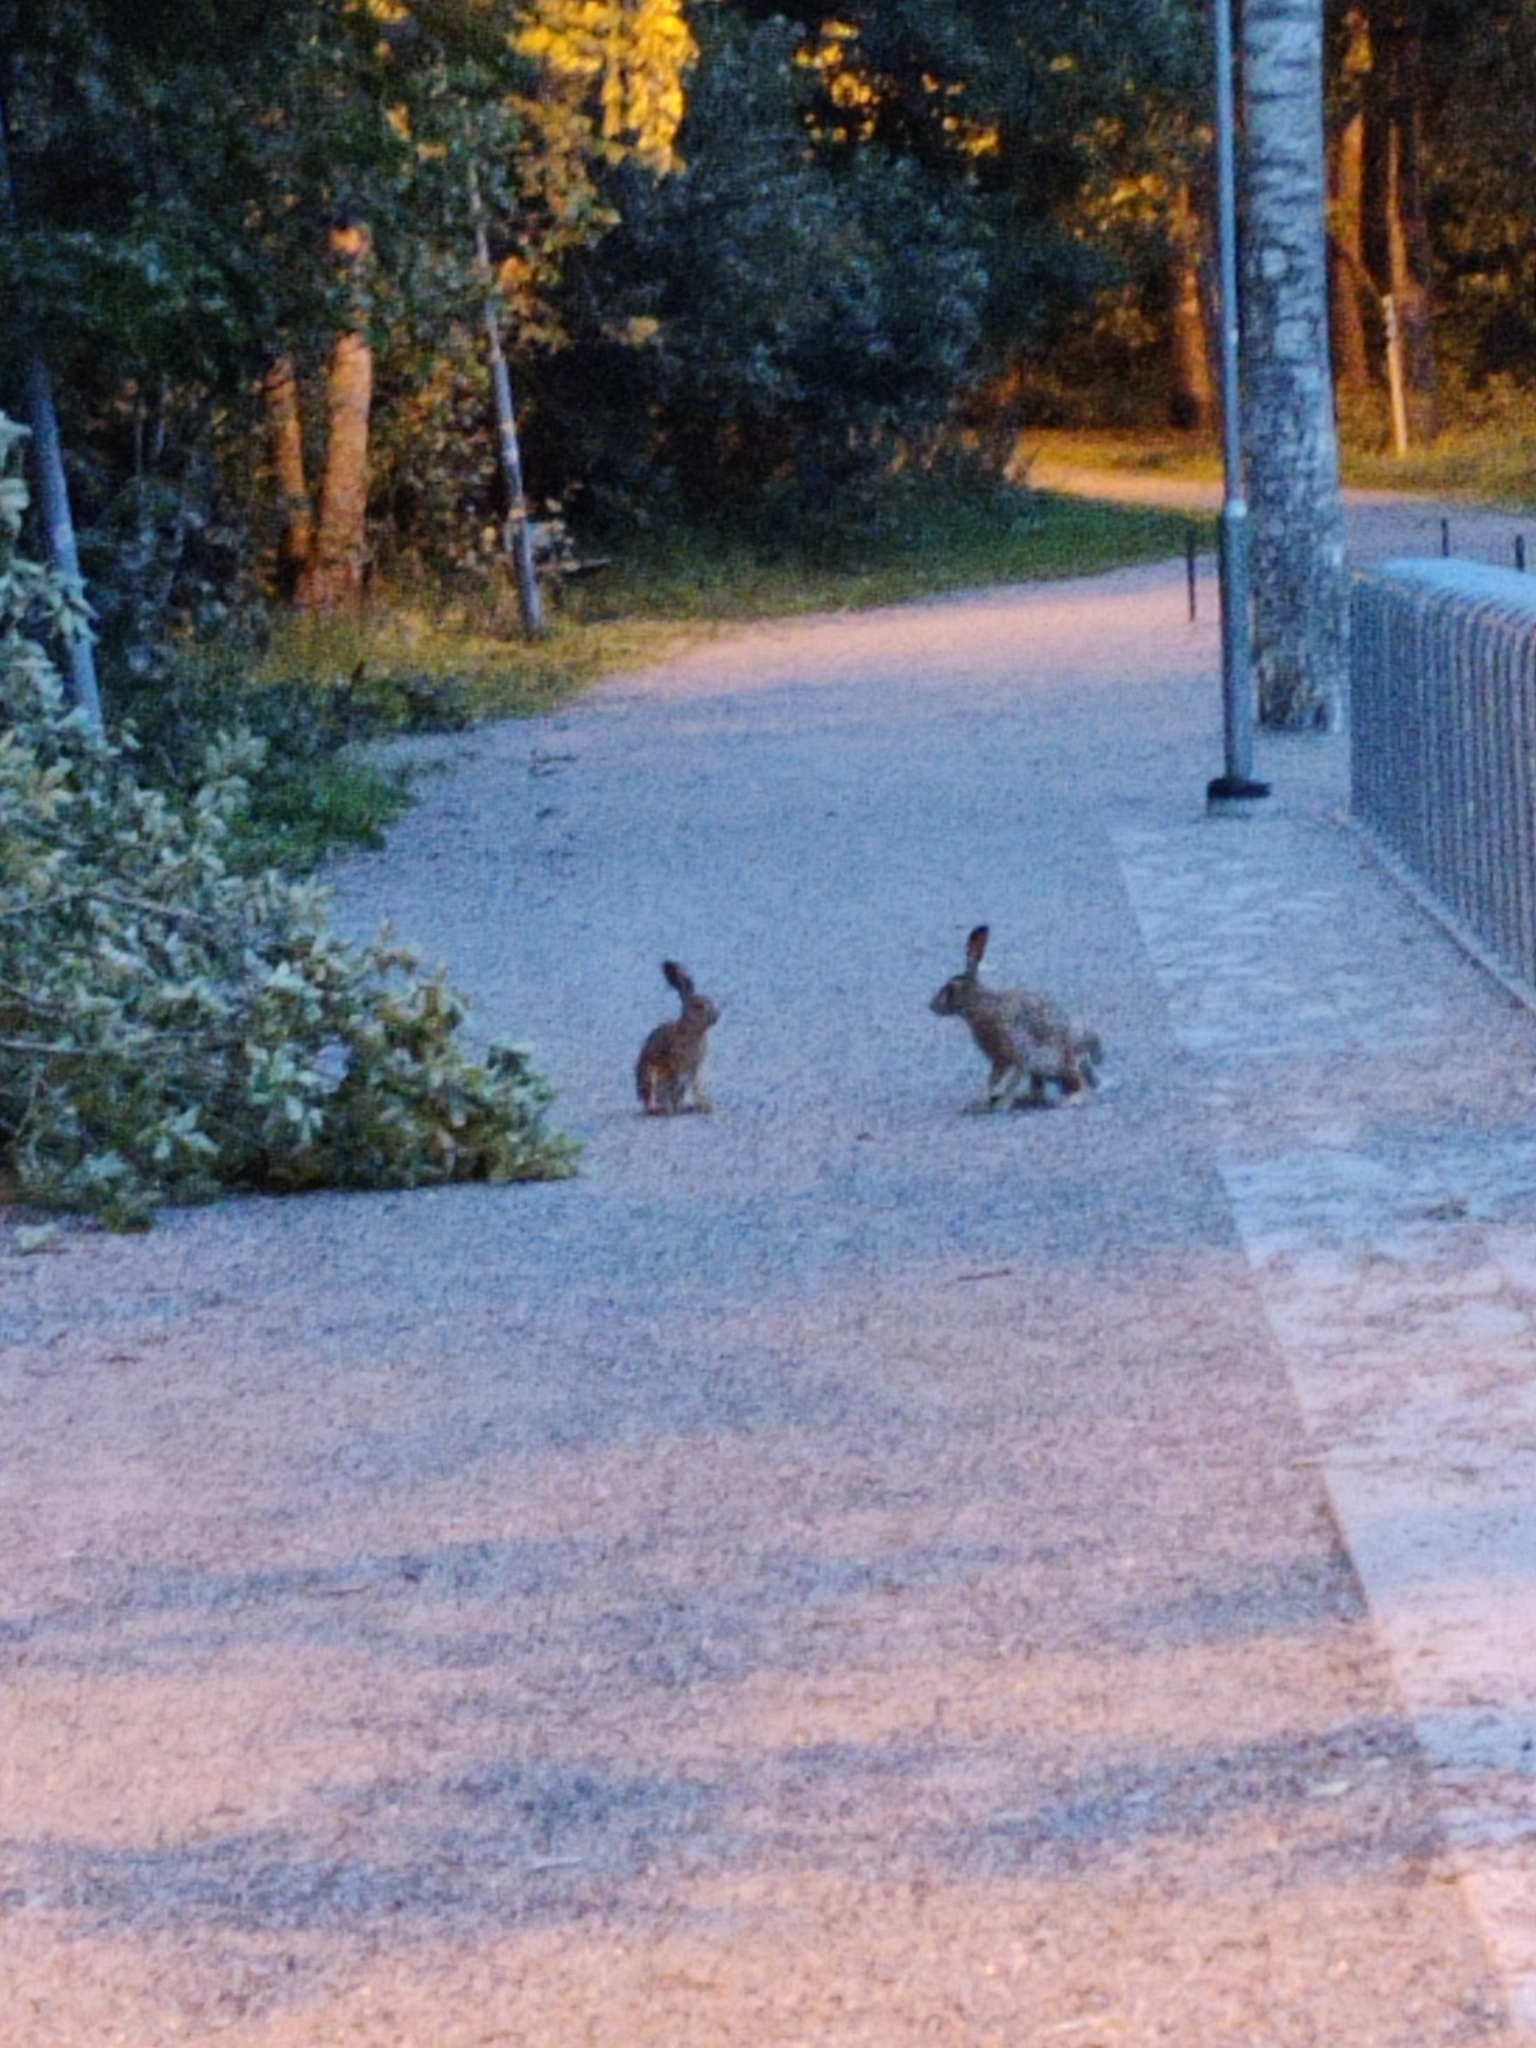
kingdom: Animalia
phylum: Chordata
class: Mammalia
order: Lagomorpha
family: Leporidae
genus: Lepus
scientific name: Lepus europaeus
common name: European hare
